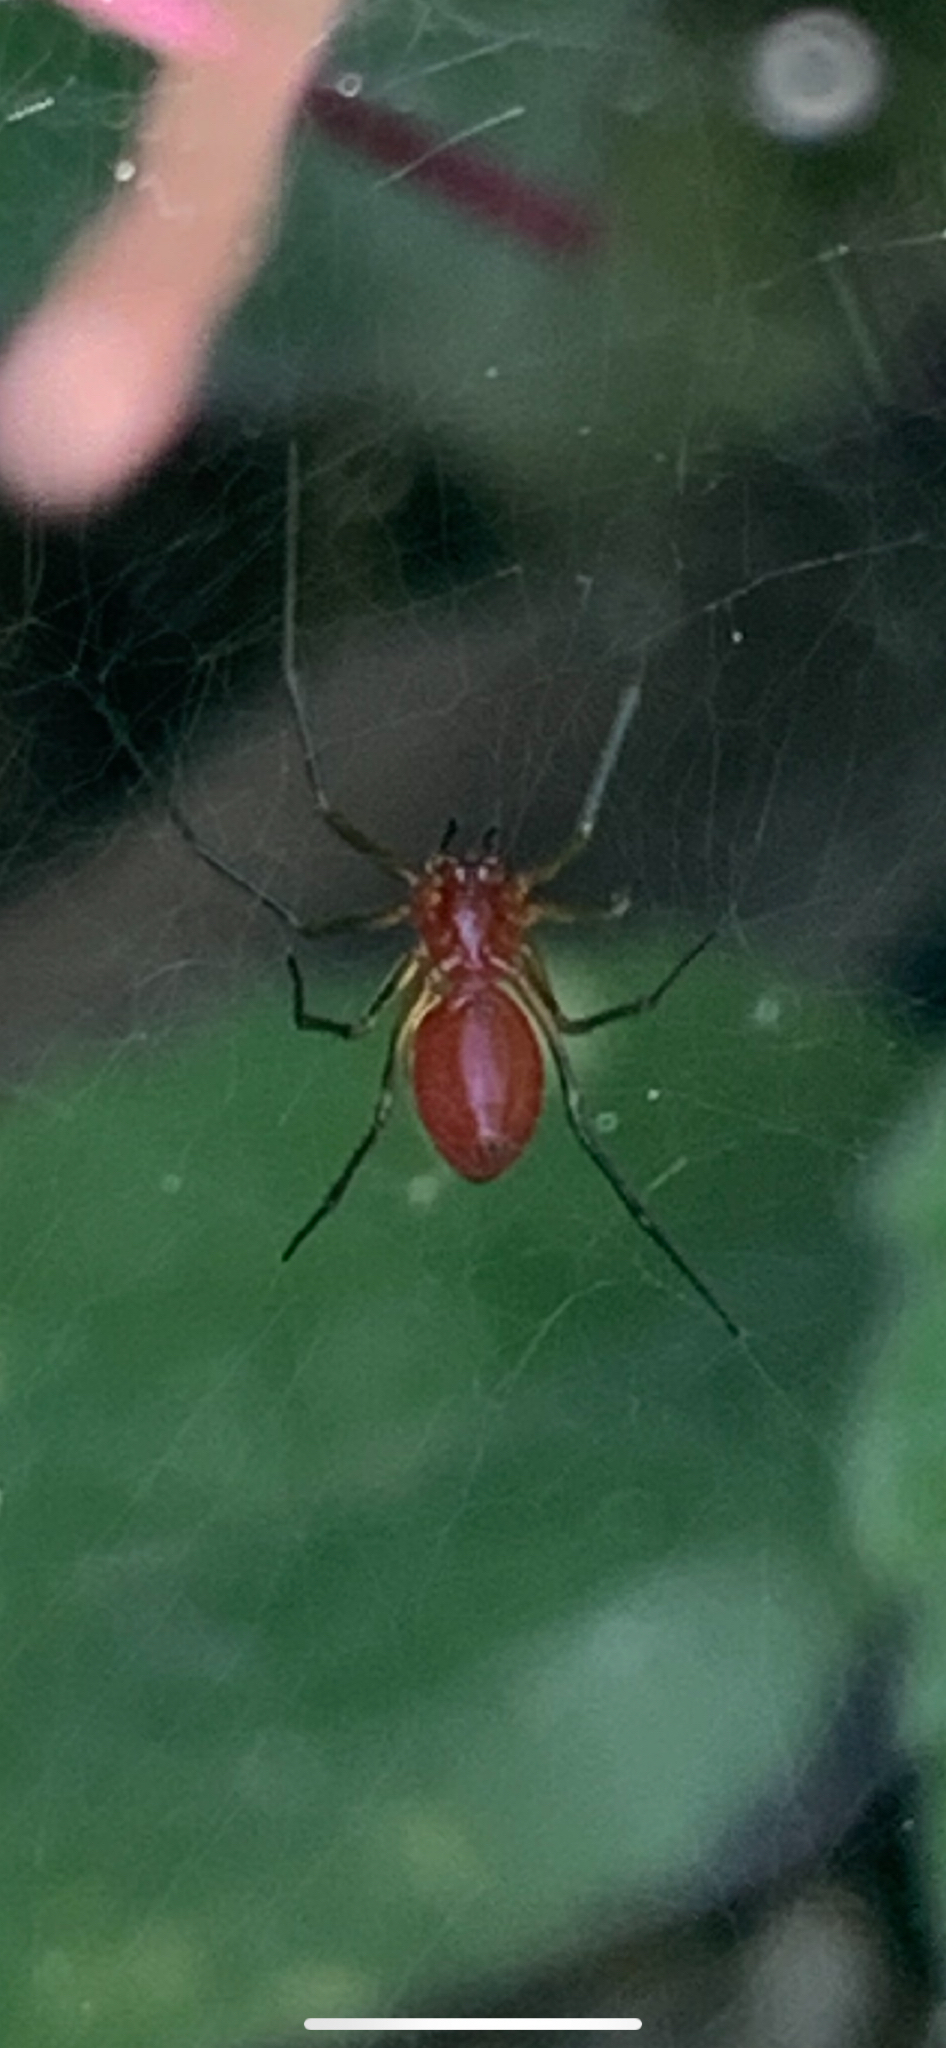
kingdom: Animalia
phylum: Arthropoda
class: Arachnida
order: Araneae
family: Linyphiidae
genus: Florinda
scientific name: Florinda coccinea
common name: Black-tailed red sheetweaver
